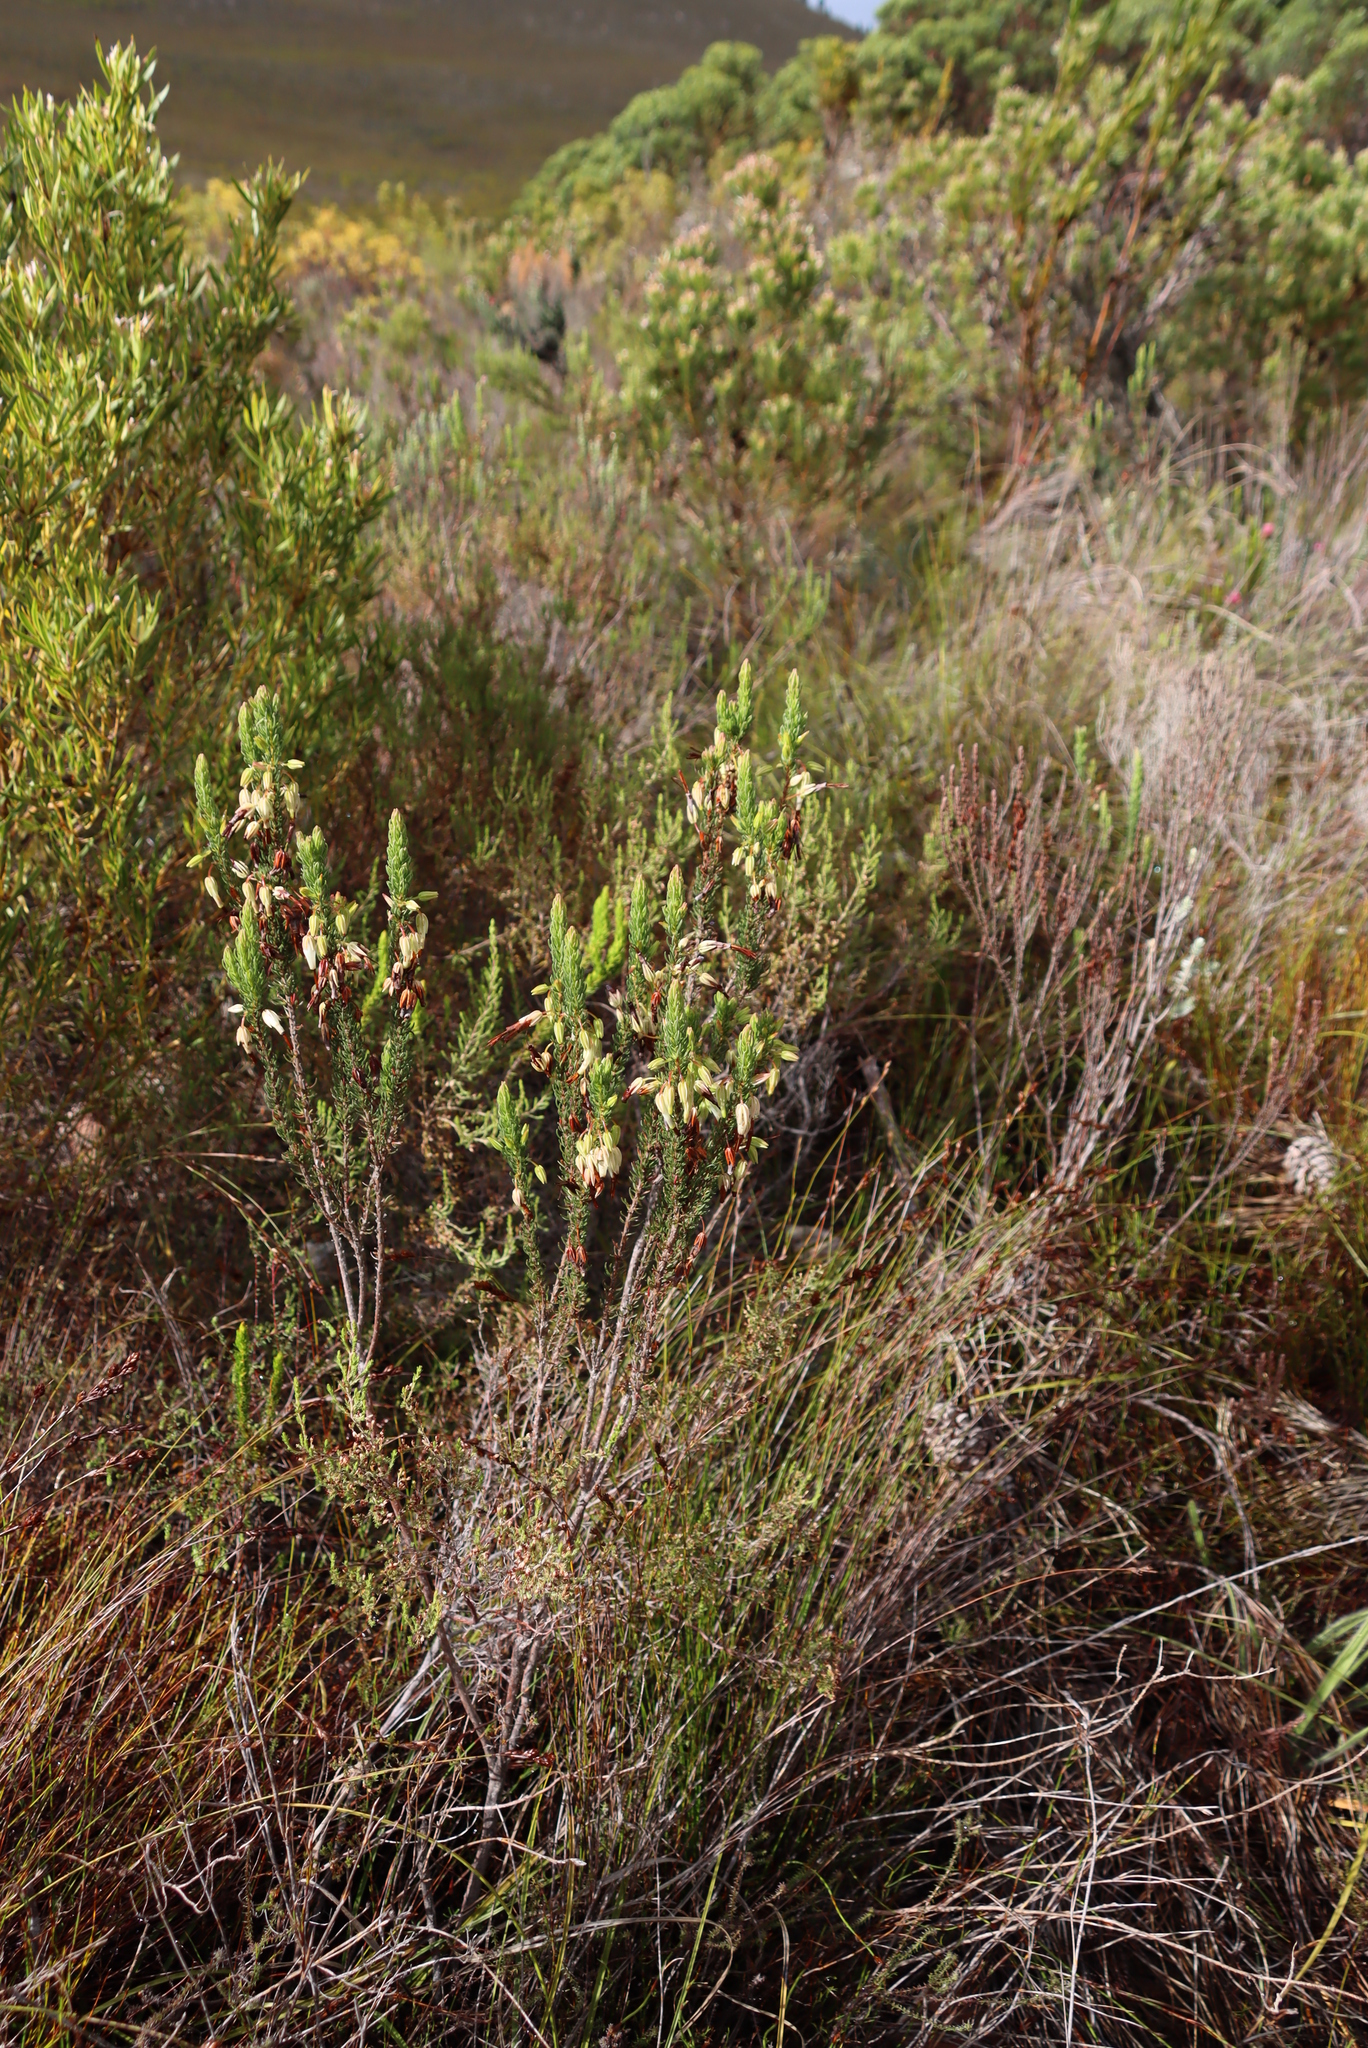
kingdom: Plantae
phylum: Tracheophyta
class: Magnoliopsida
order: Ericales
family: Ericaceae
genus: Erica
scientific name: Erica plukenetii
